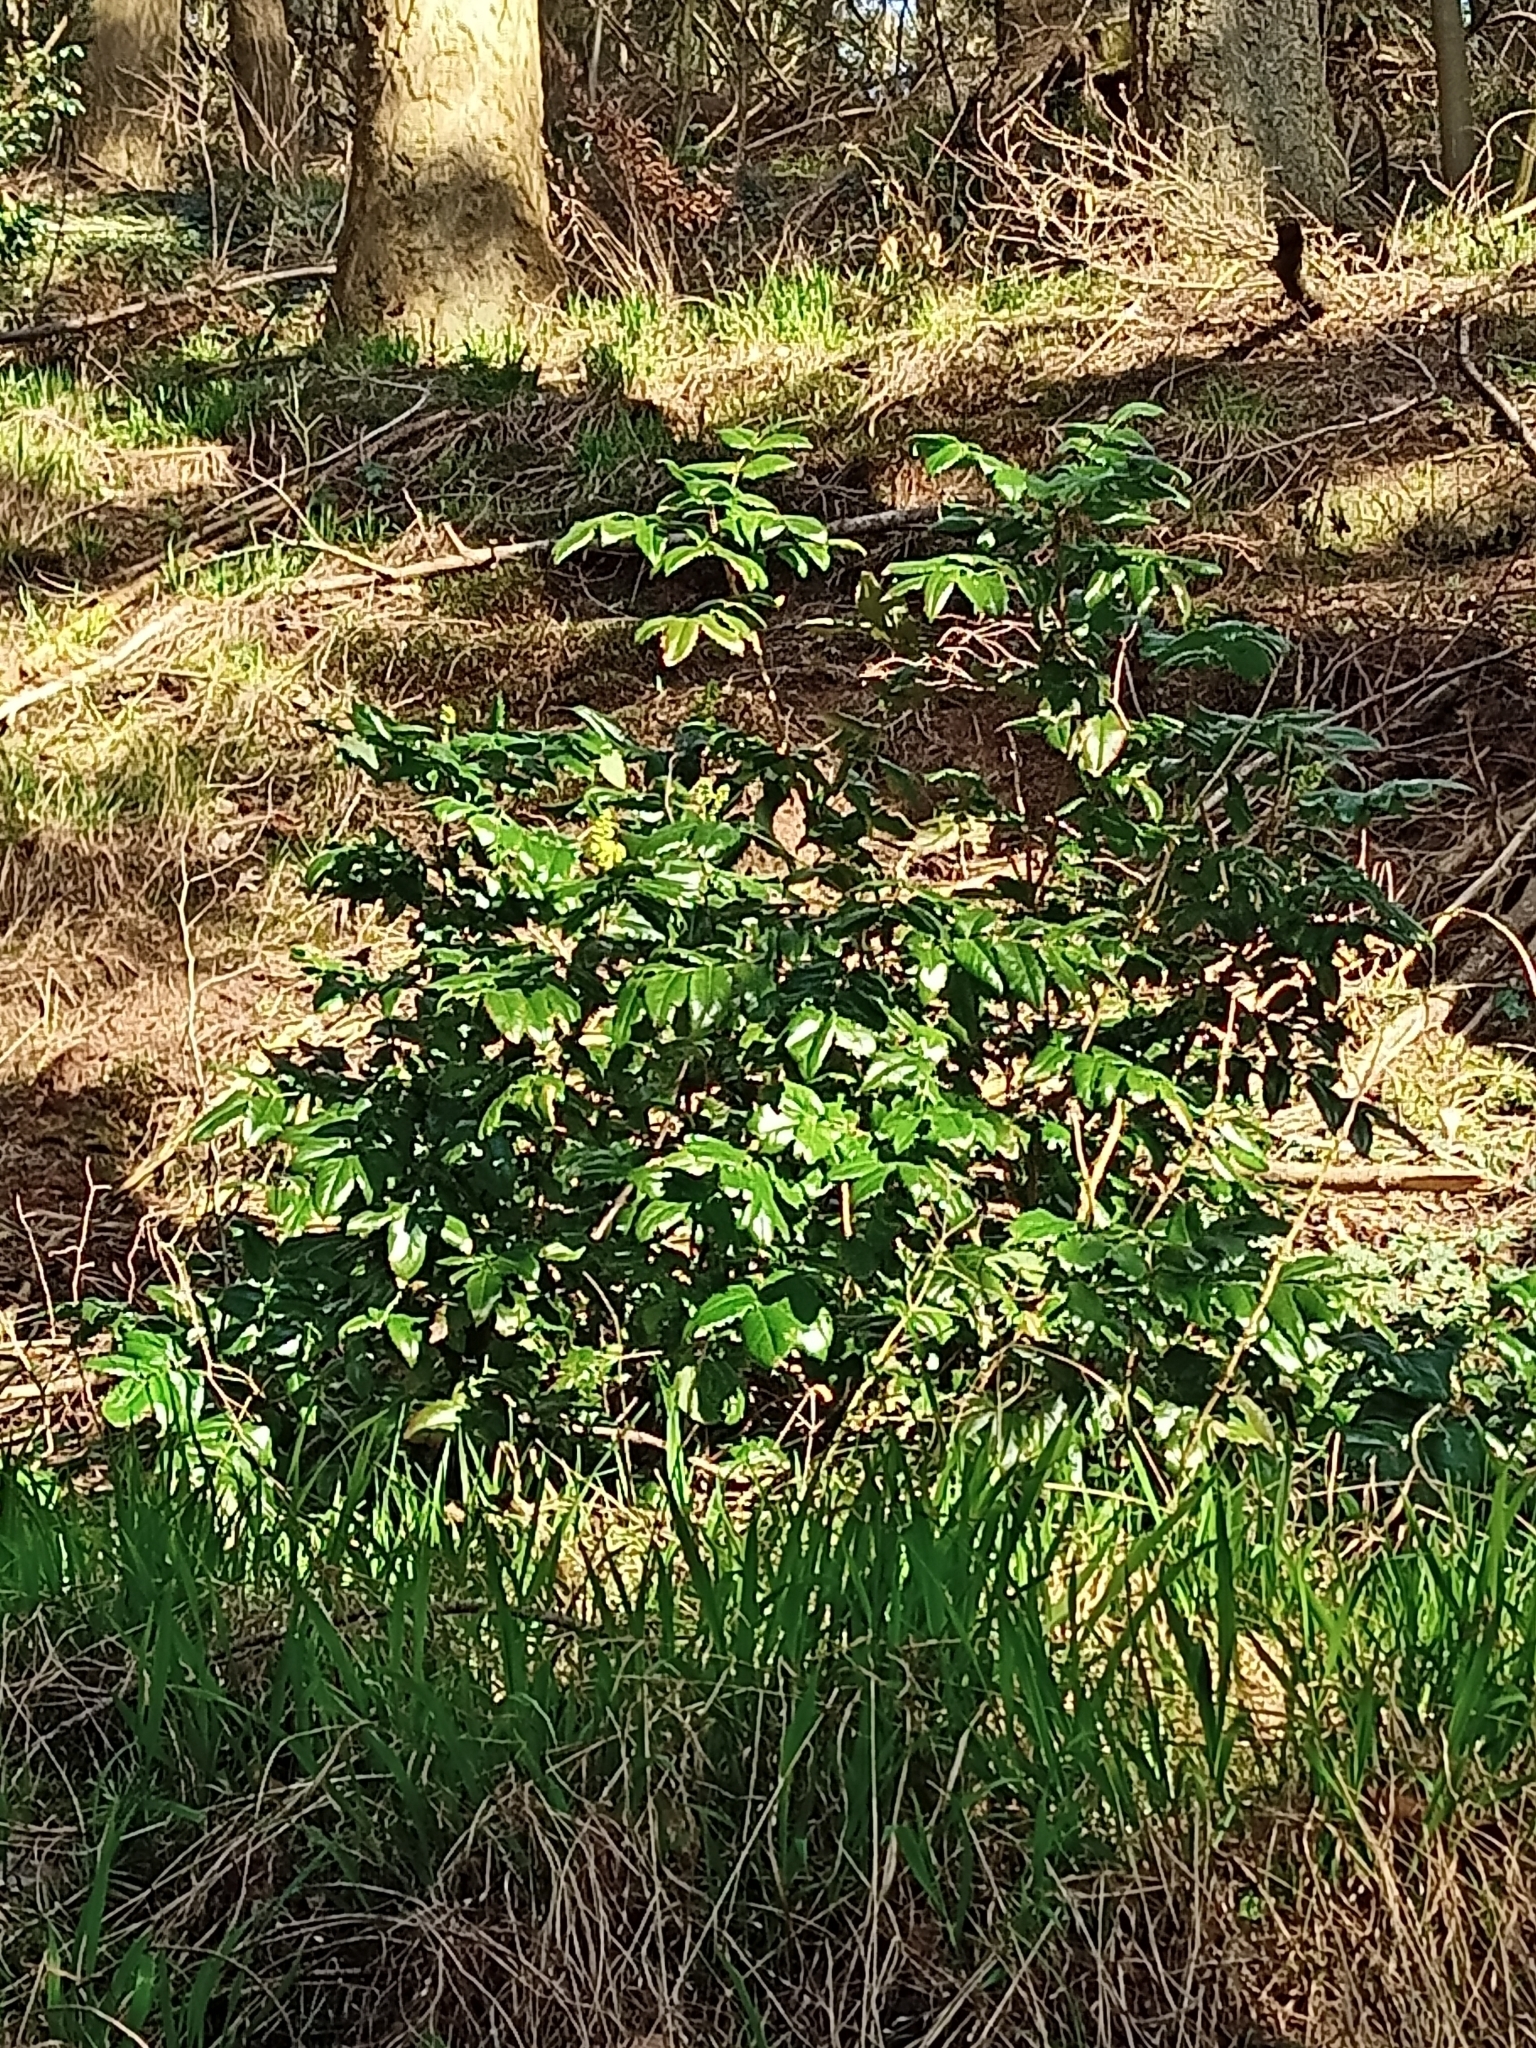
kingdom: Plantae
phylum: Tracheophyta
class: Magnoliopsida
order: Ranunculales
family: Berberidaceae
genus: Mahonia
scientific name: Mahonia aquifolium
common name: Oregon-grape
